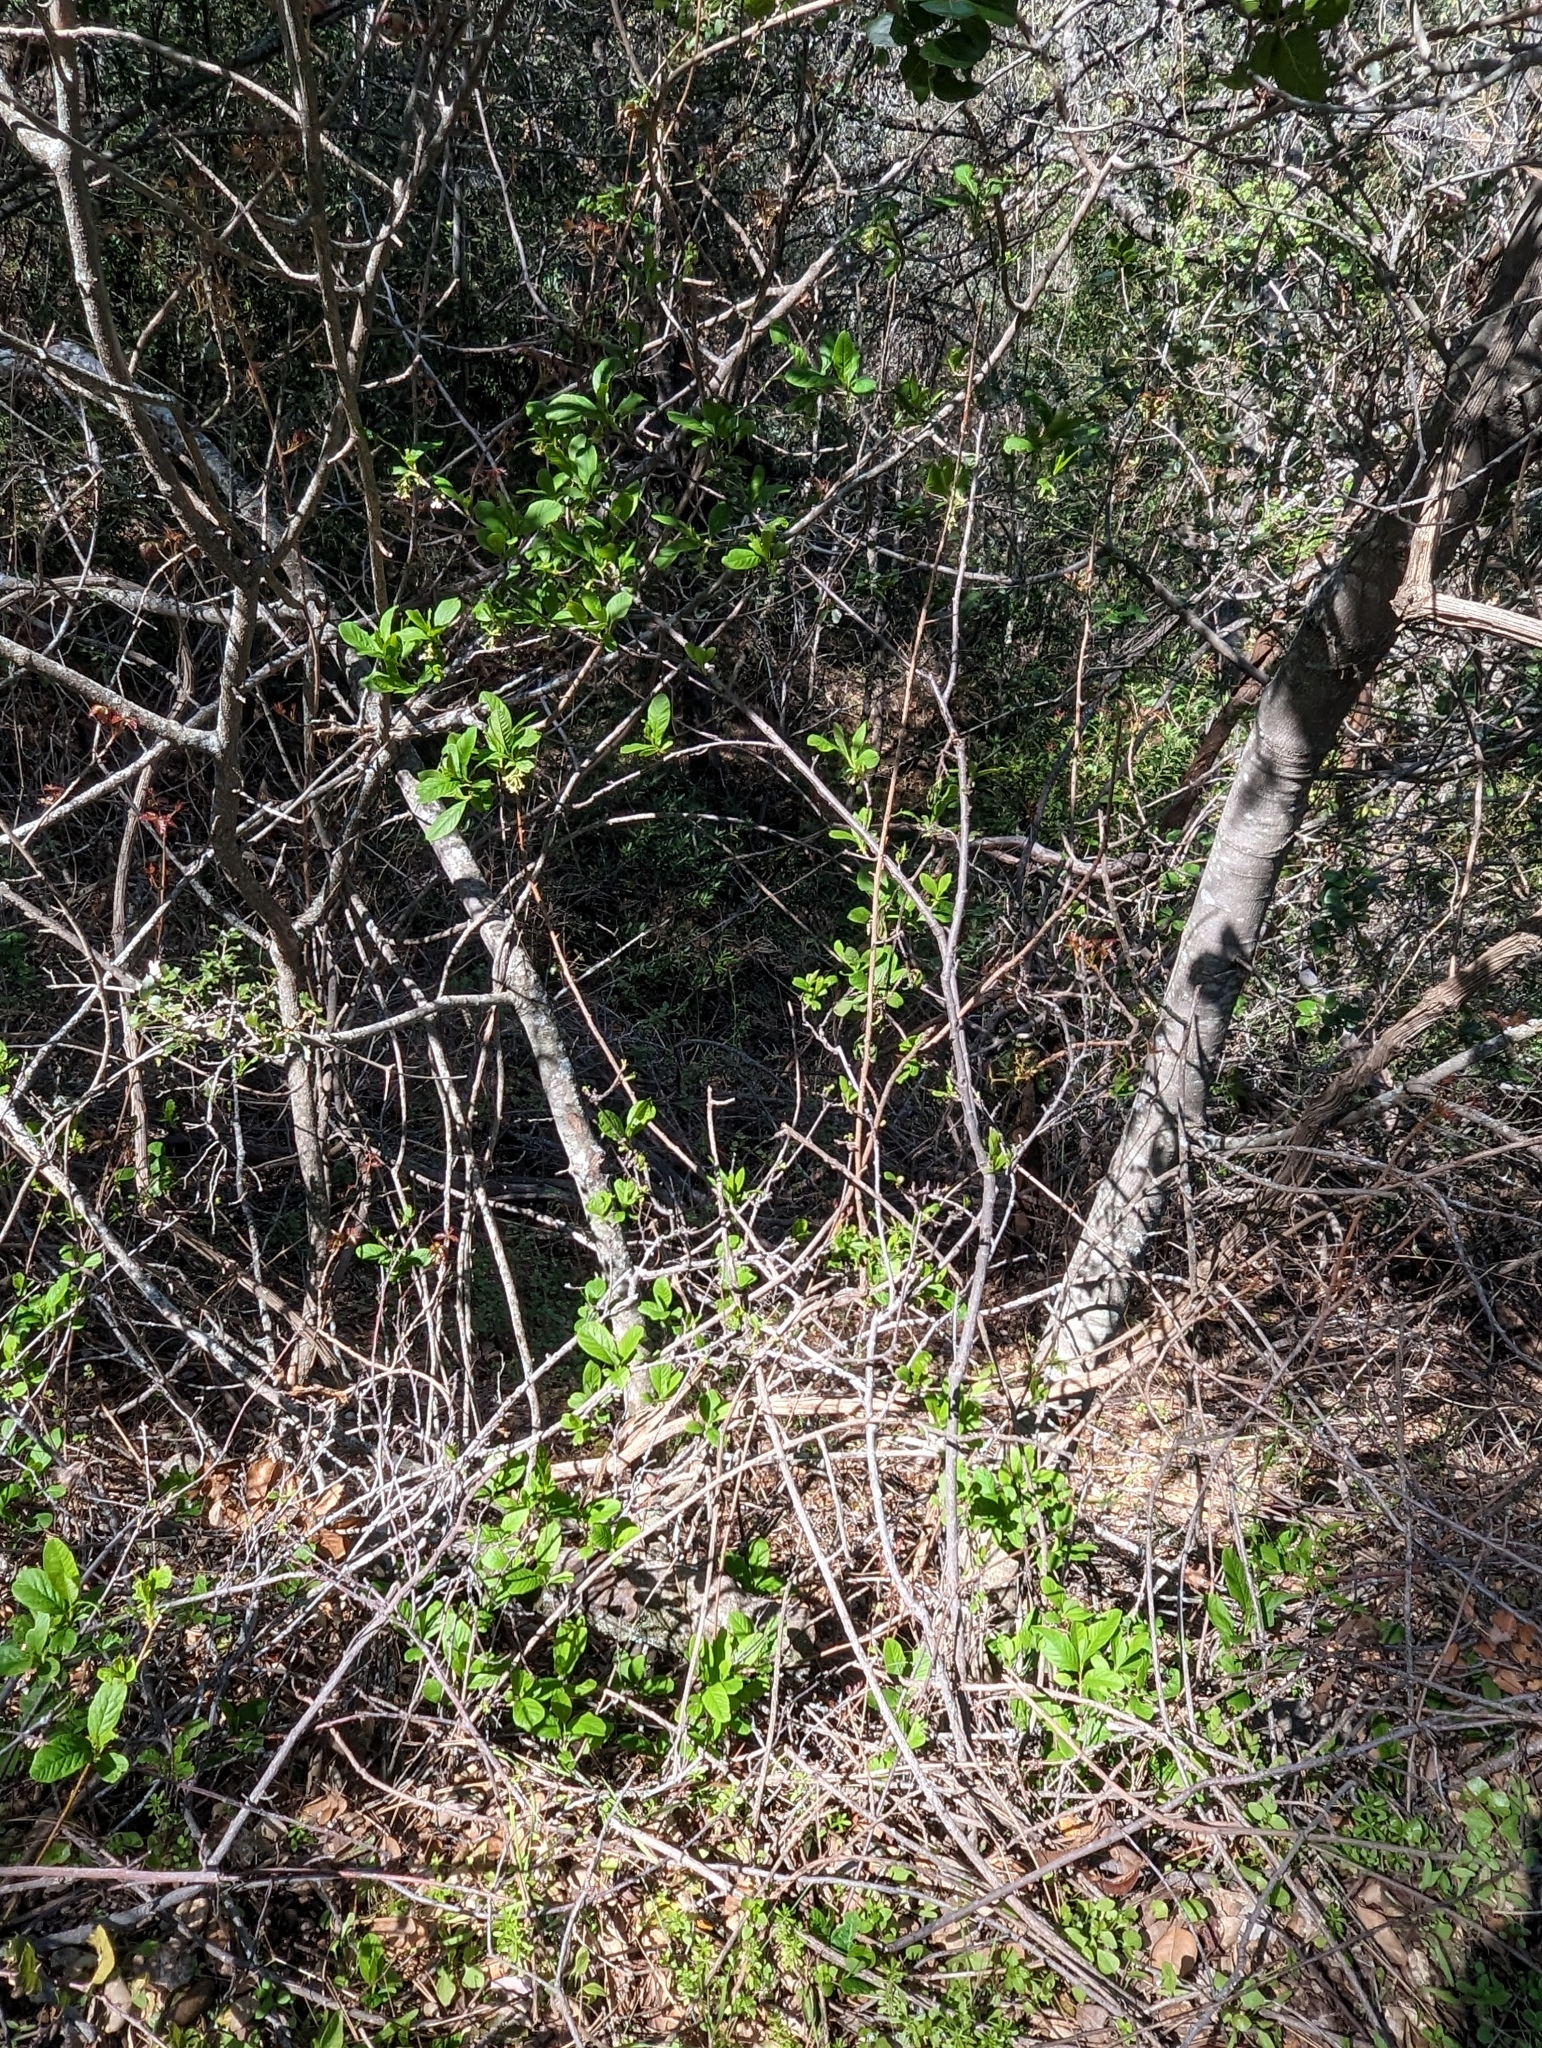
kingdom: Plantae
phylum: Tracheophyta
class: Magnoliopsida
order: Rosales
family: Rosaceae
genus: Oemleria
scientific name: Oemleria cerasiformis
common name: Osoberry
